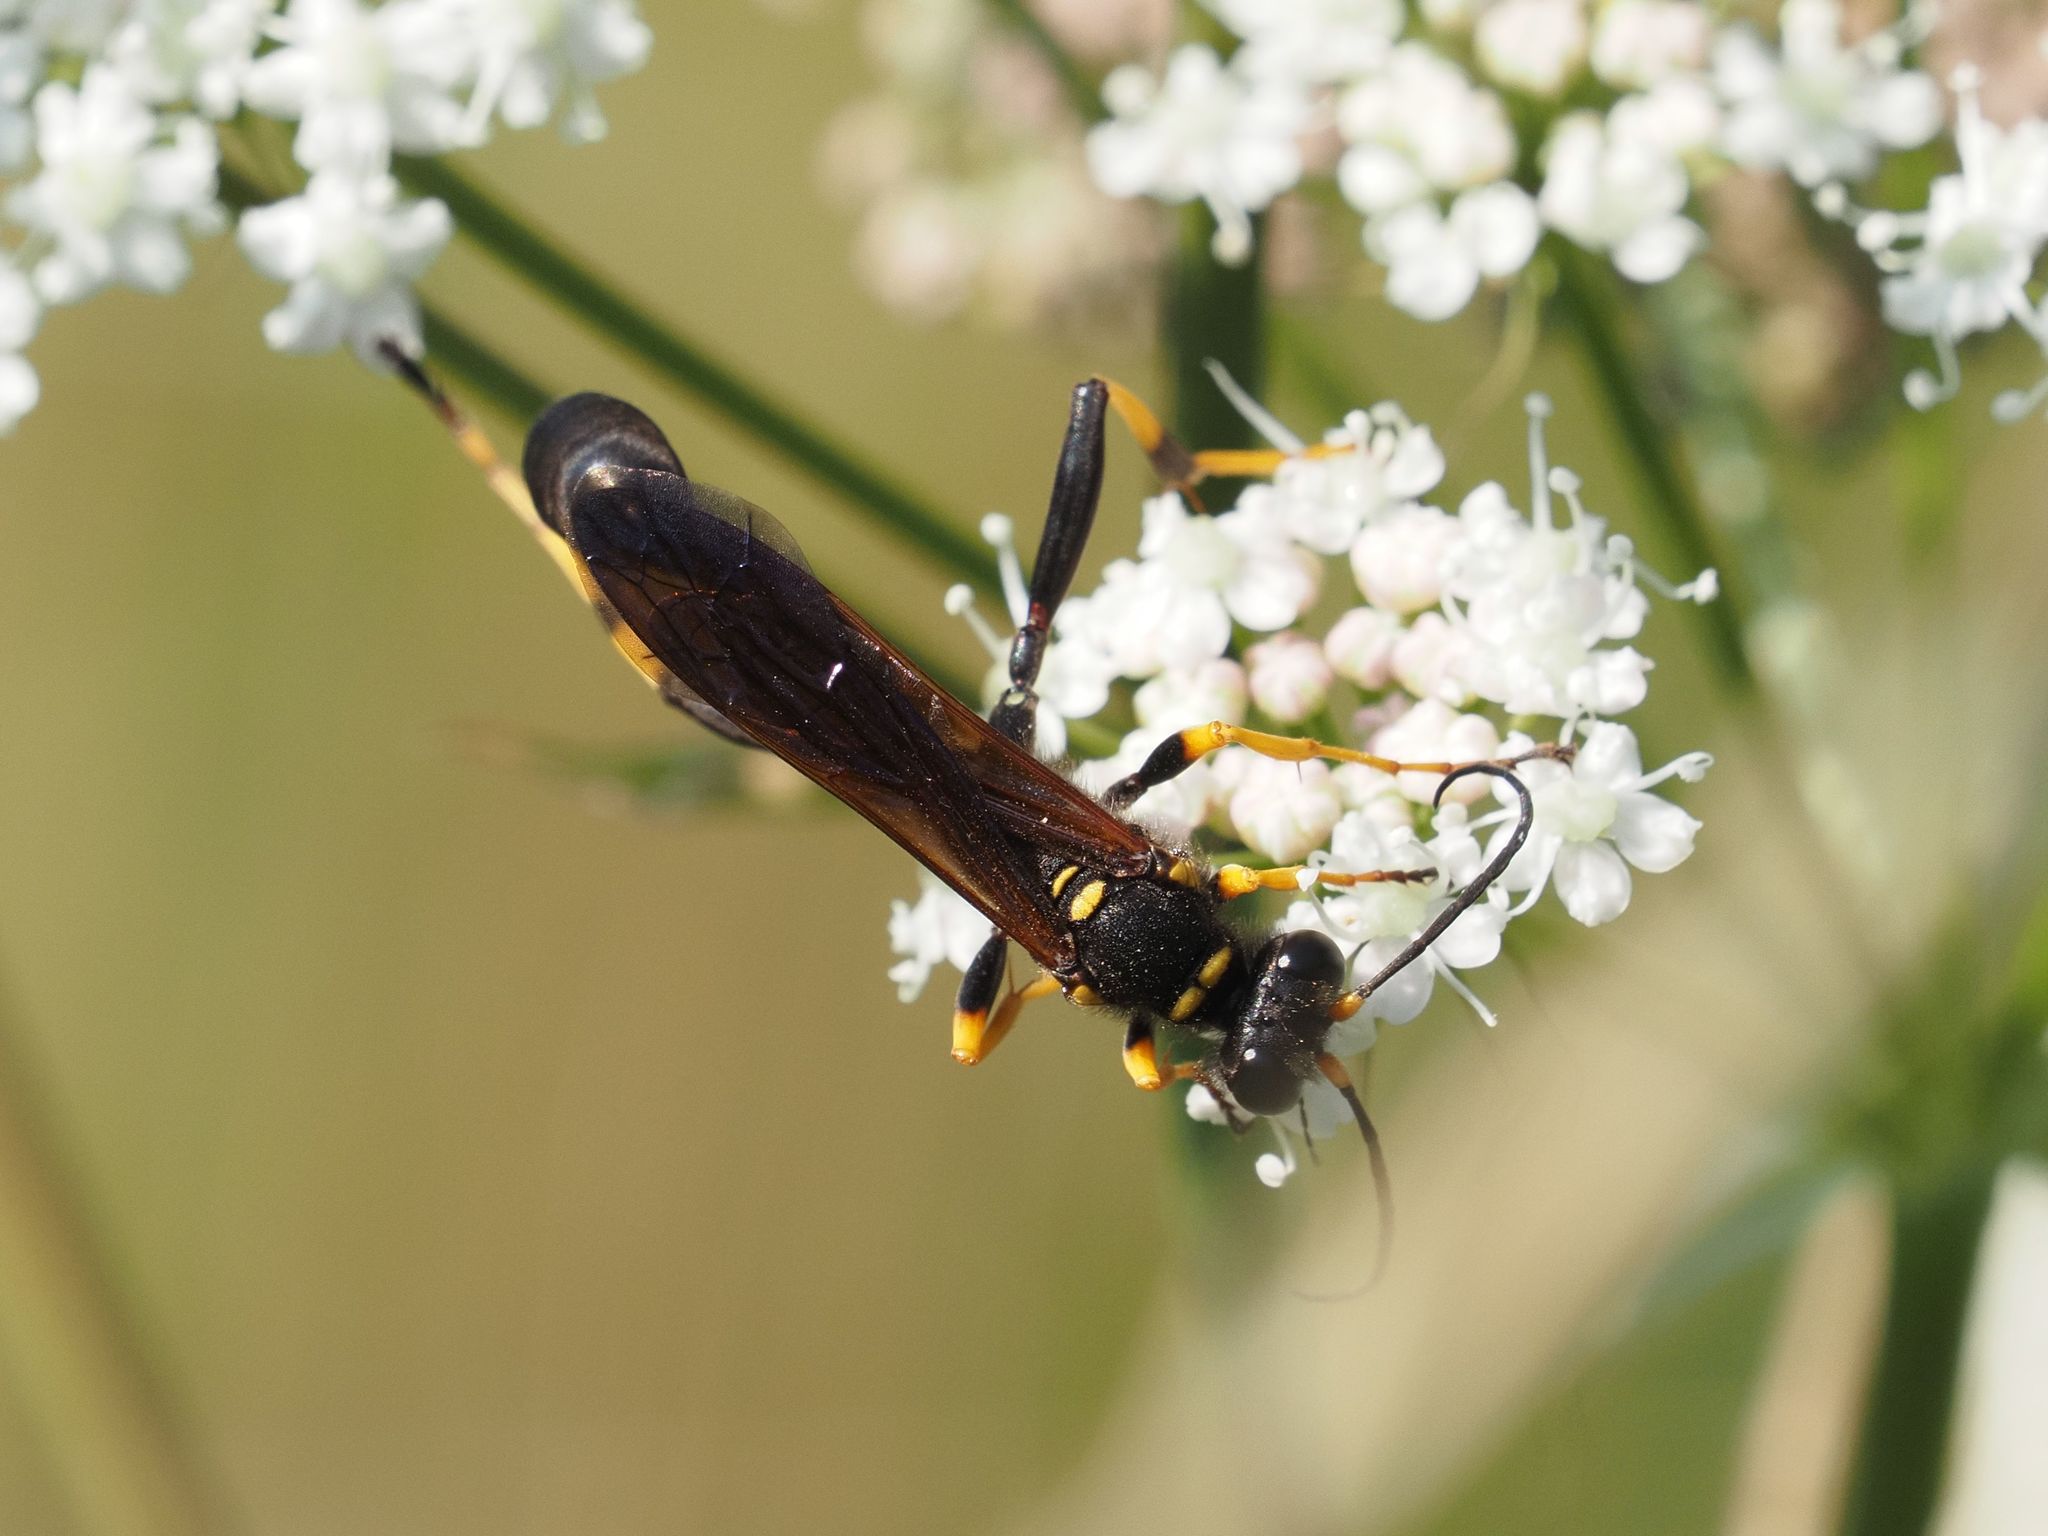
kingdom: Animalia
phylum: Arthropoda
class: Insecta
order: Hymenoptera
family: Sphecidae
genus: Sceliphron
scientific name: Sceliphron caementarium
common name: Mud dauber
